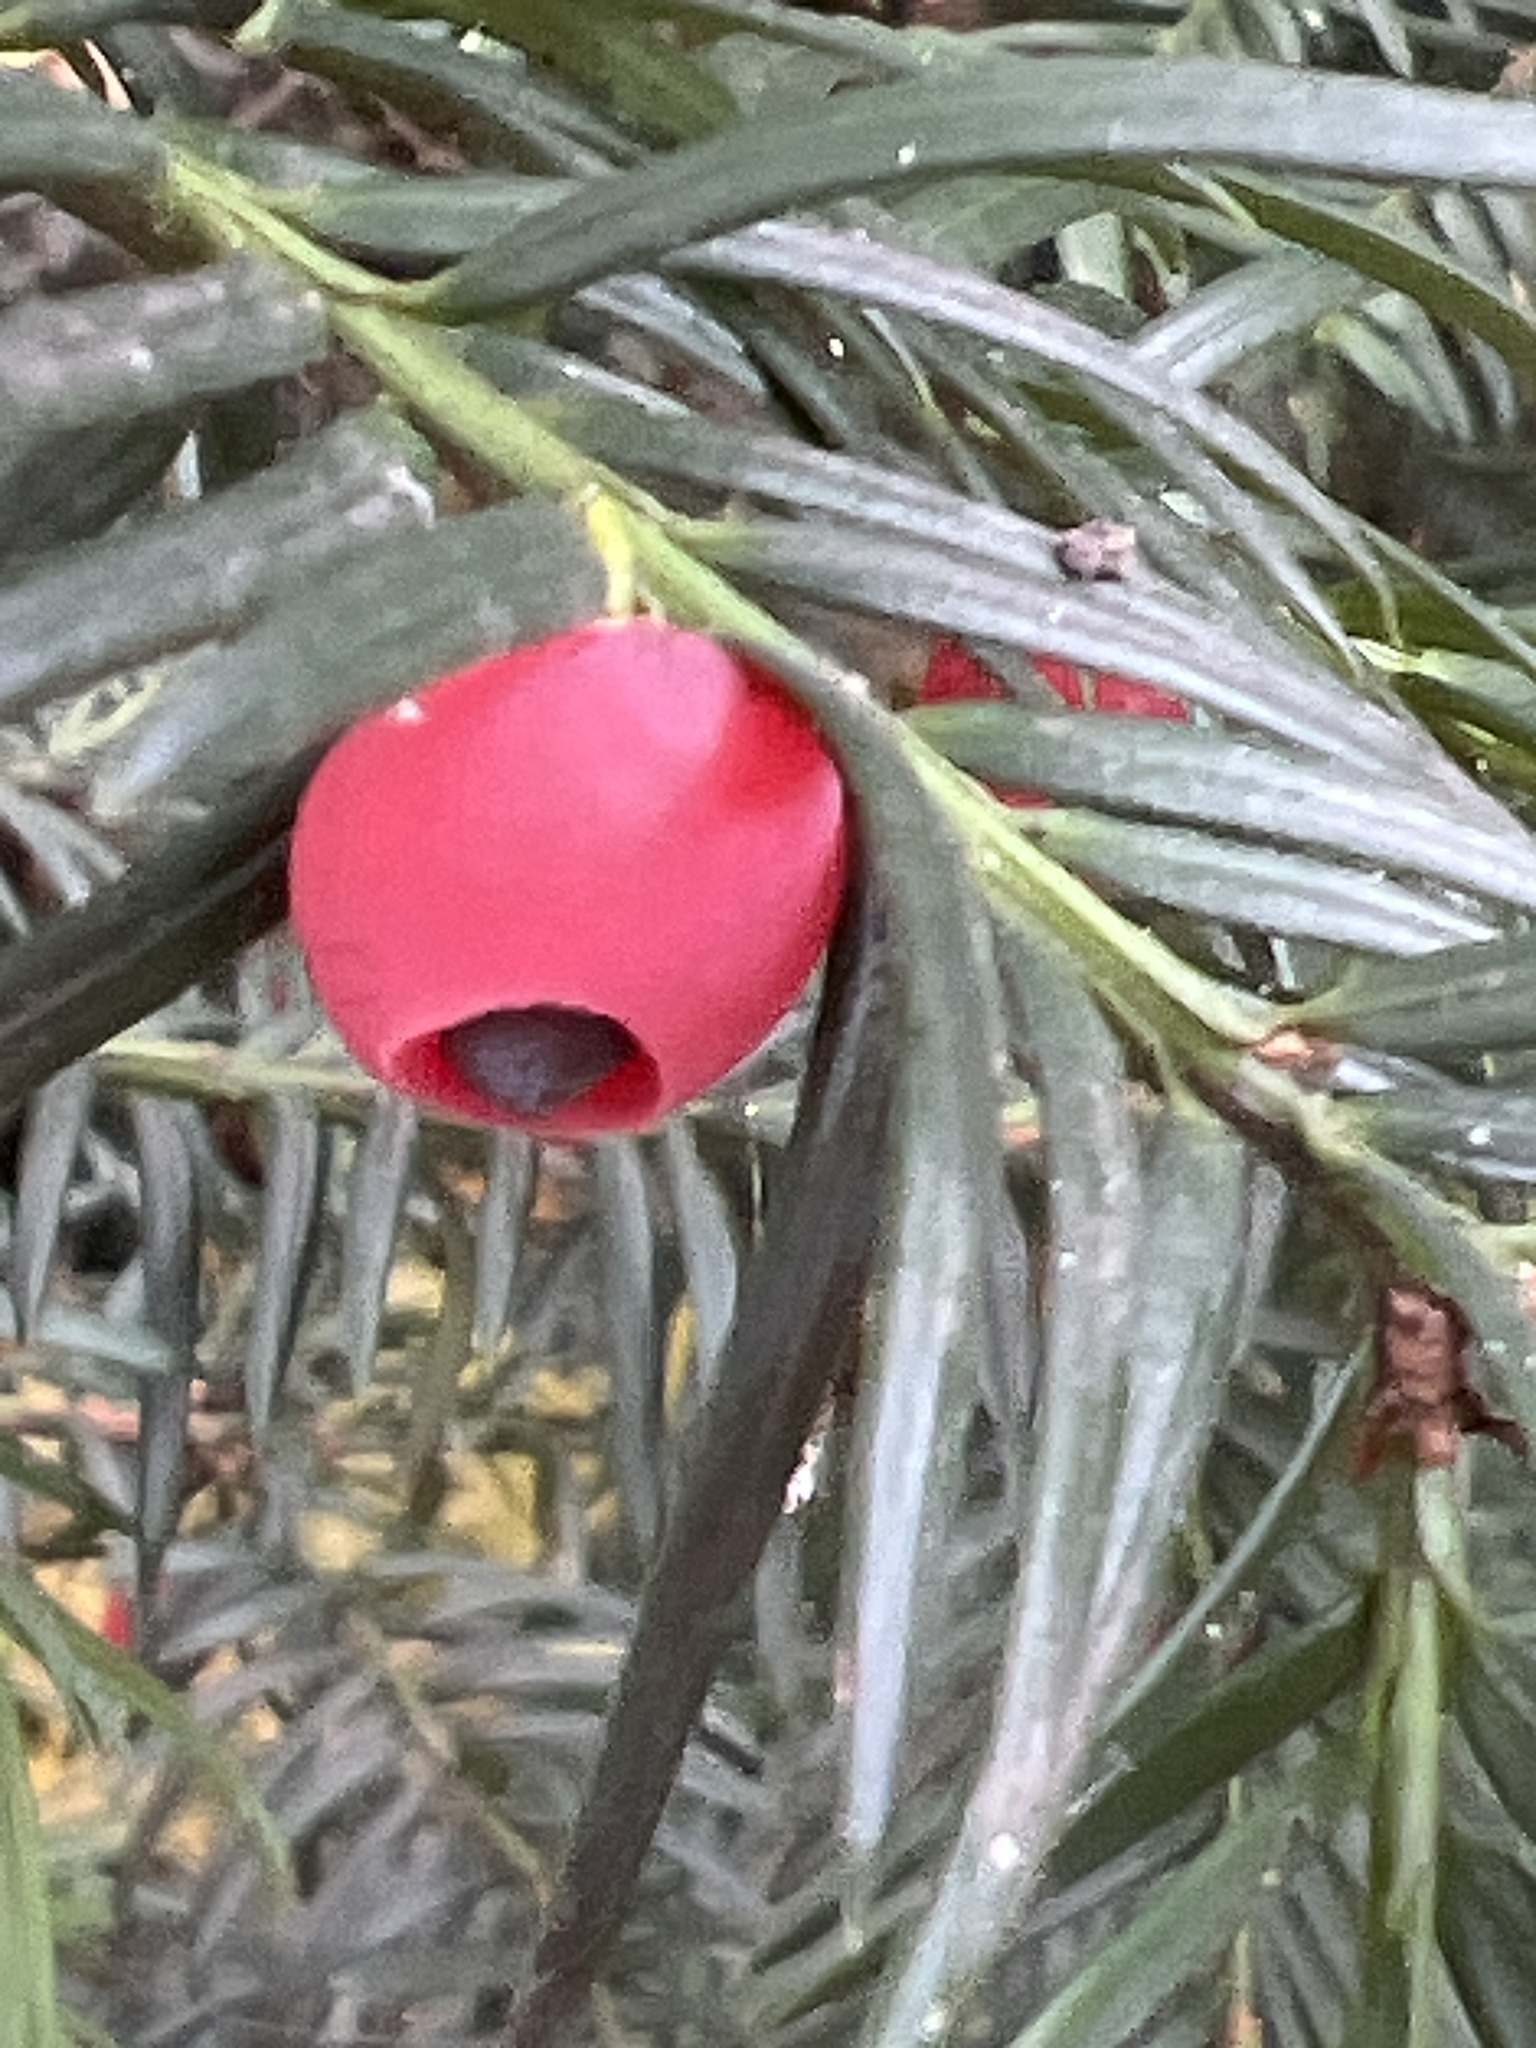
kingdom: Plantae
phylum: Tracheophyta
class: Pinopsida
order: Pinales
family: Taxaceae
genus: Taxus
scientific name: Taxus baccata
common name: Yew
